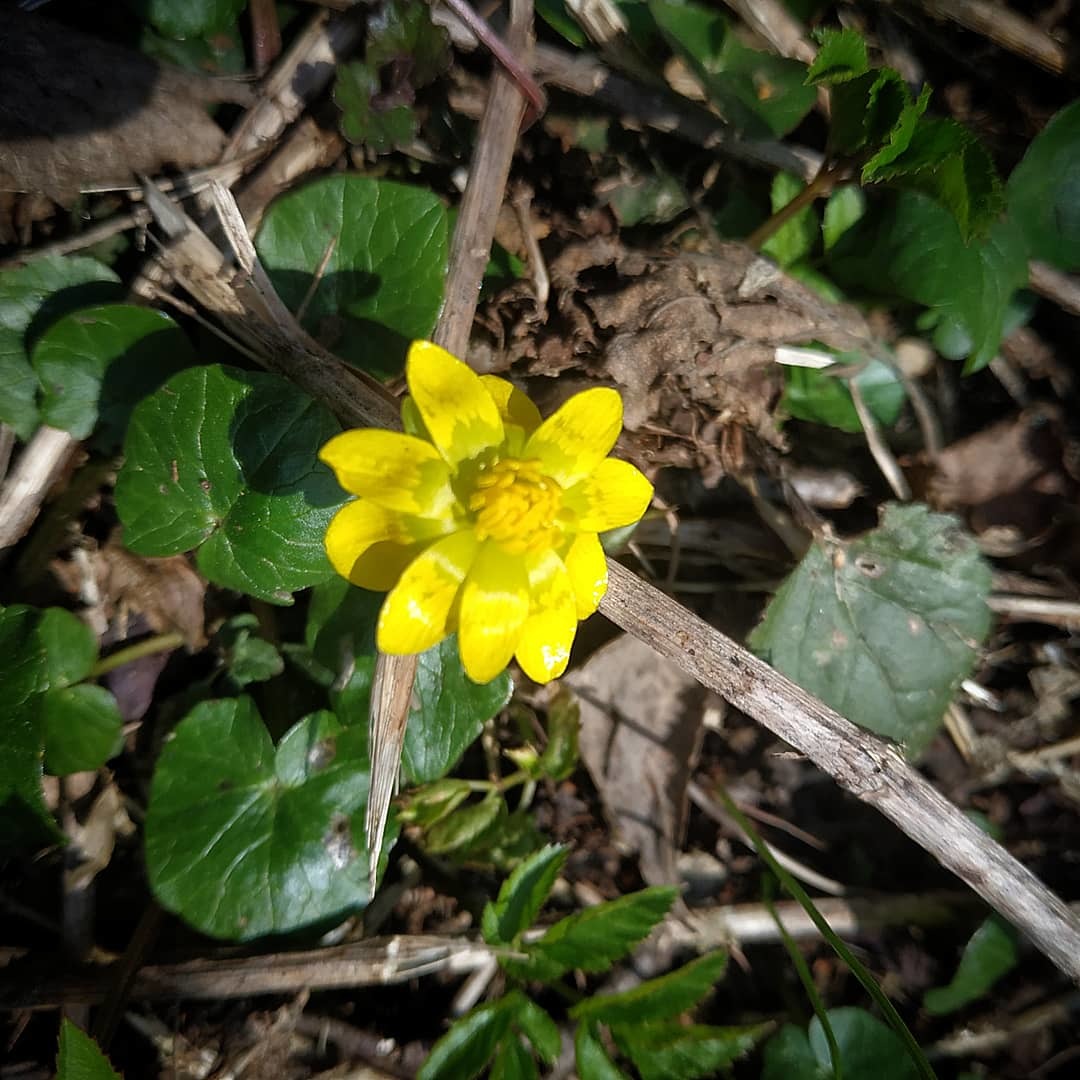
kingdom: Plantae
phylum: Tracheophyta
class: Magnoliopsida
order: Ranunculales
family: Ranunculaceae
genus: Ficaria
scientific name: Ficaria verna
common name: Lesser celandine
